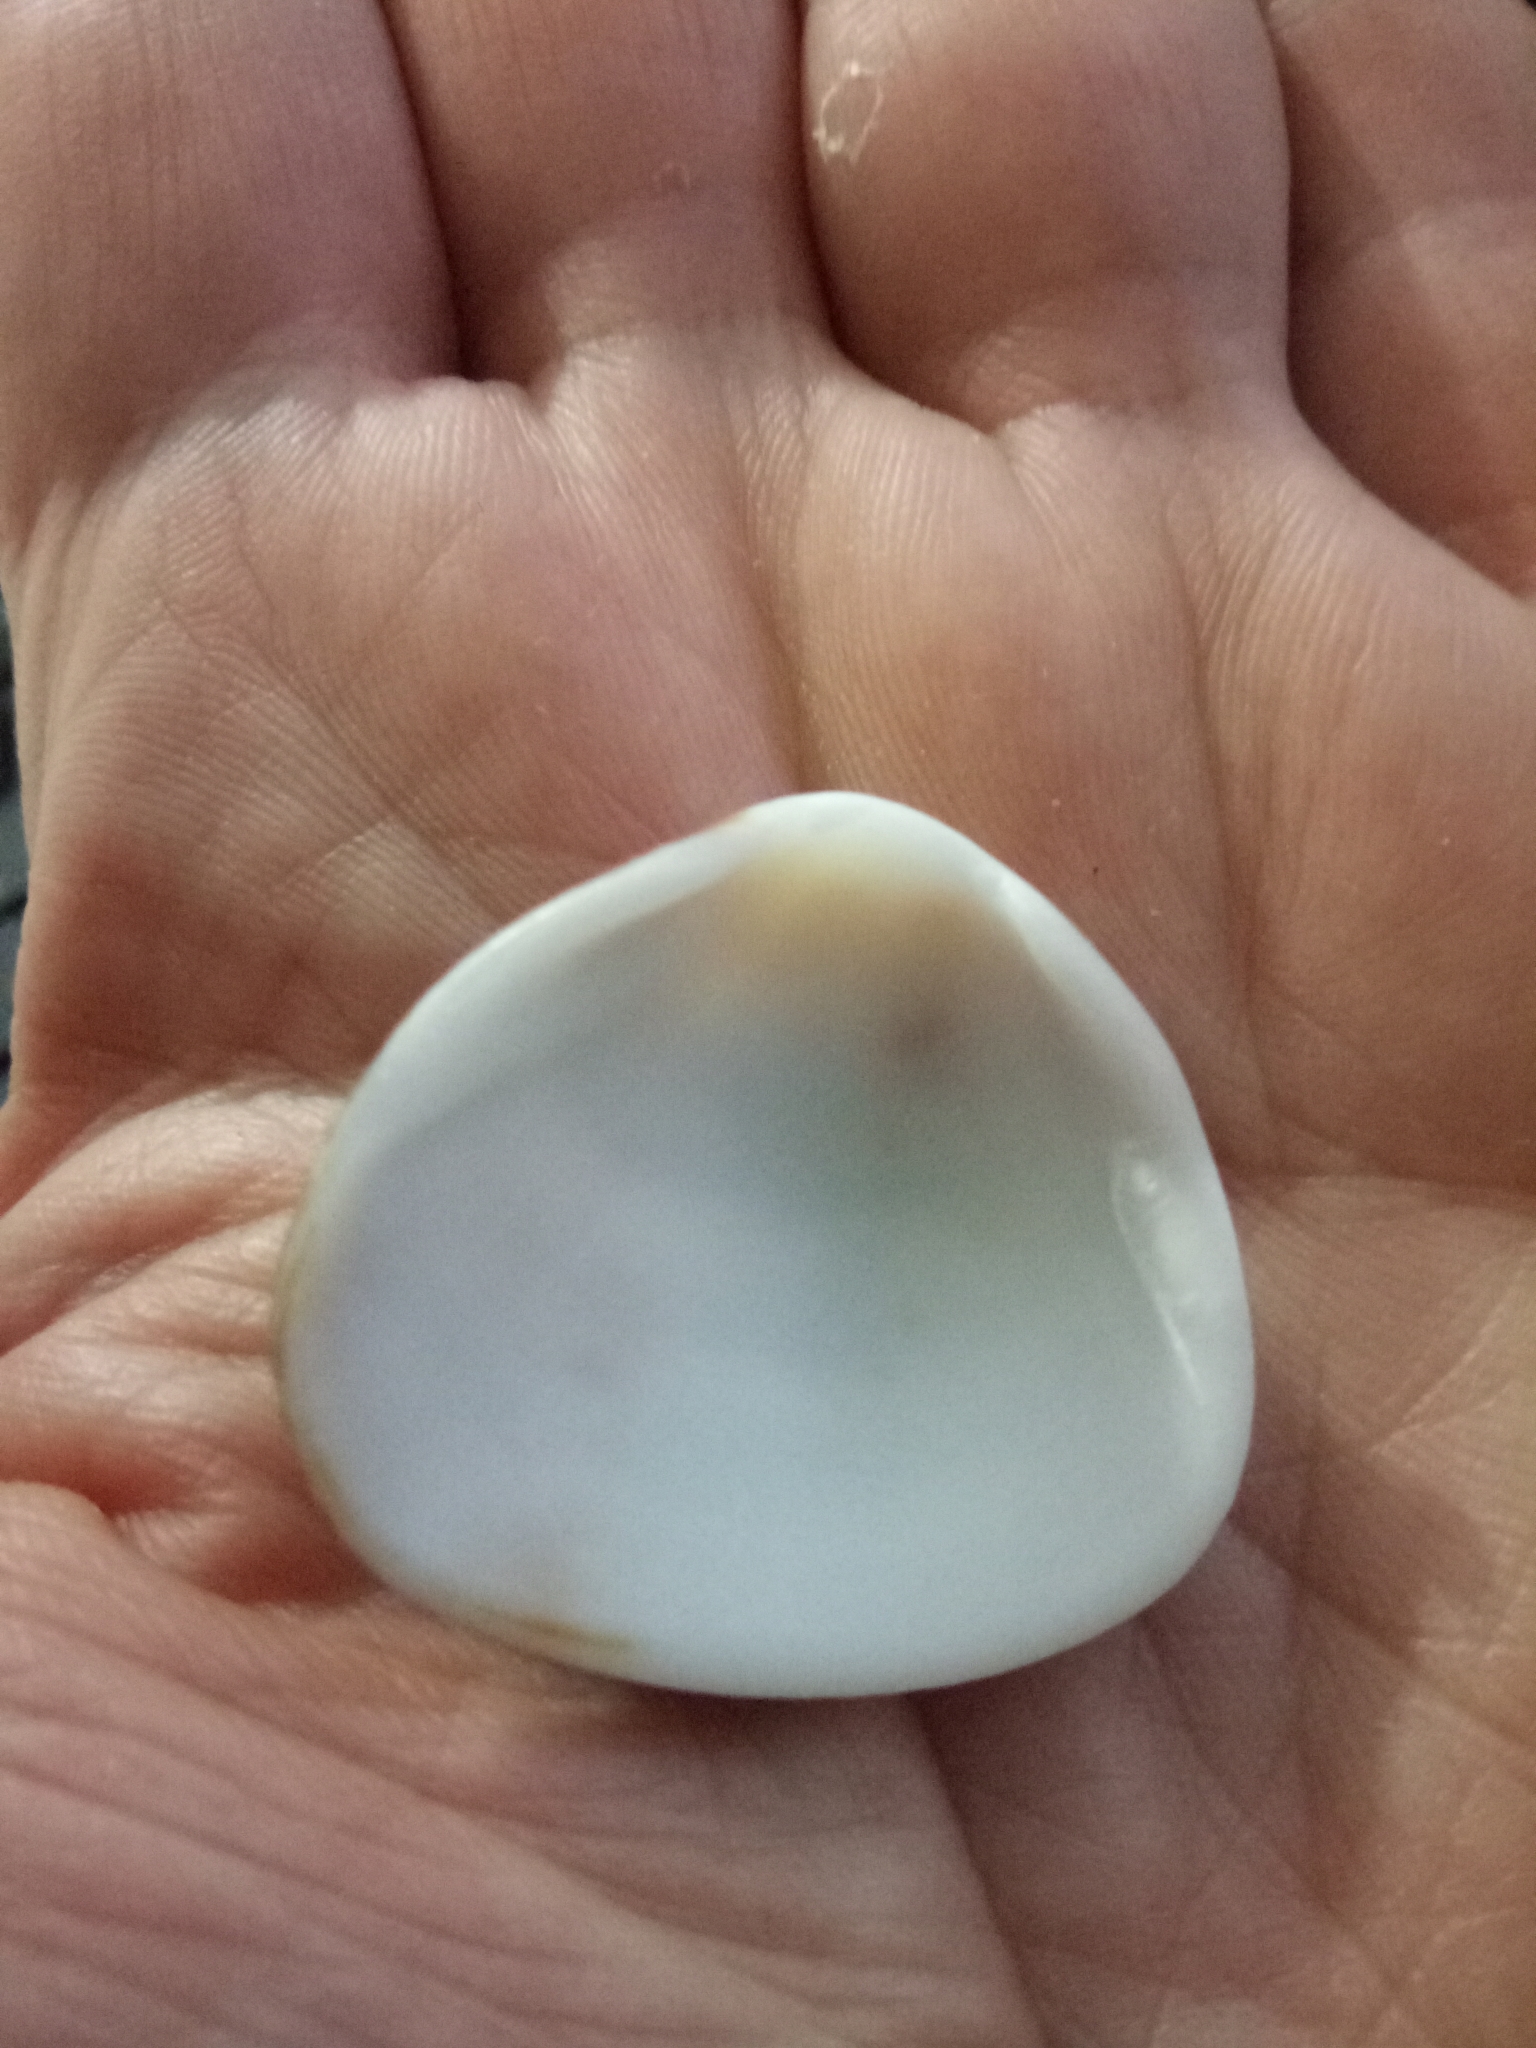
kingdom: Animalia
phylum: Mollusca
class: Bivalvia
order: Arcida
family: Glycymerididae
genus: Glycymeris
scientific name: Glycymeris glycymeris
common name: Dog-cockle
